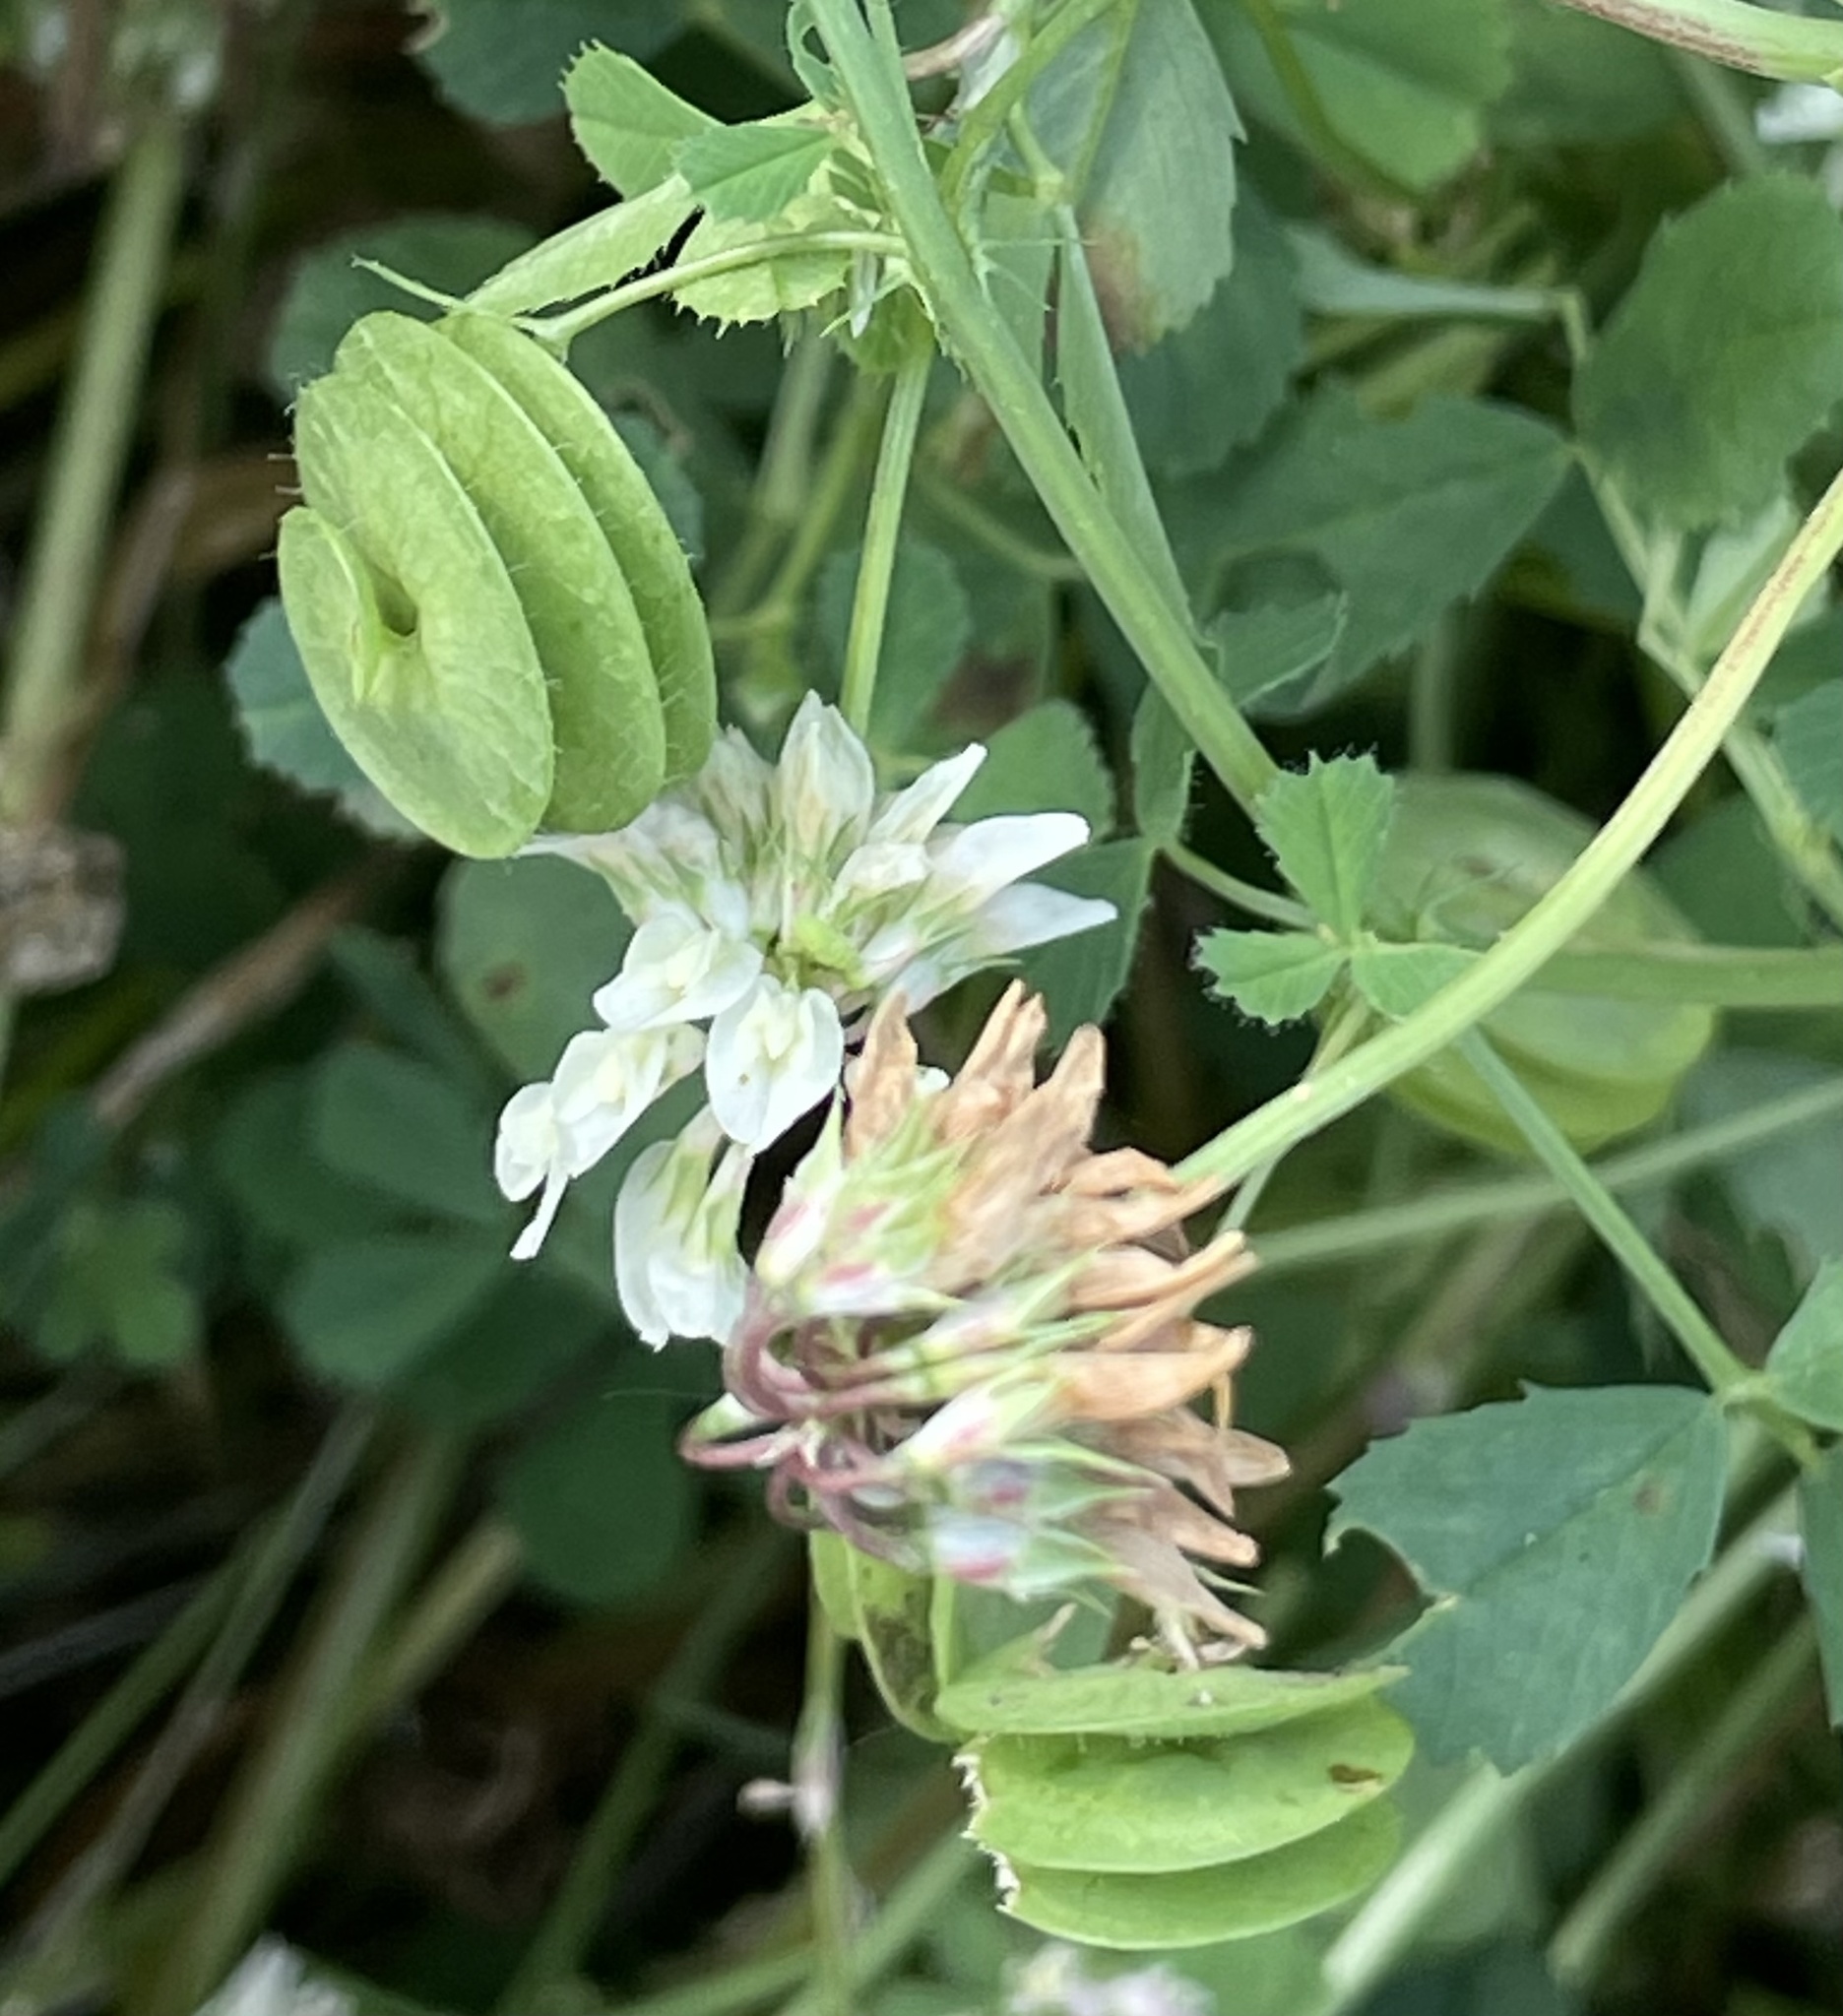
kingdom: Plantae
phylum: Tracheophyta
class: Magnoliopsida
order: Fabales
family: Fabaceae
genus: Medicago
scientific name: Medicago orbicularis
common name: Button medick
